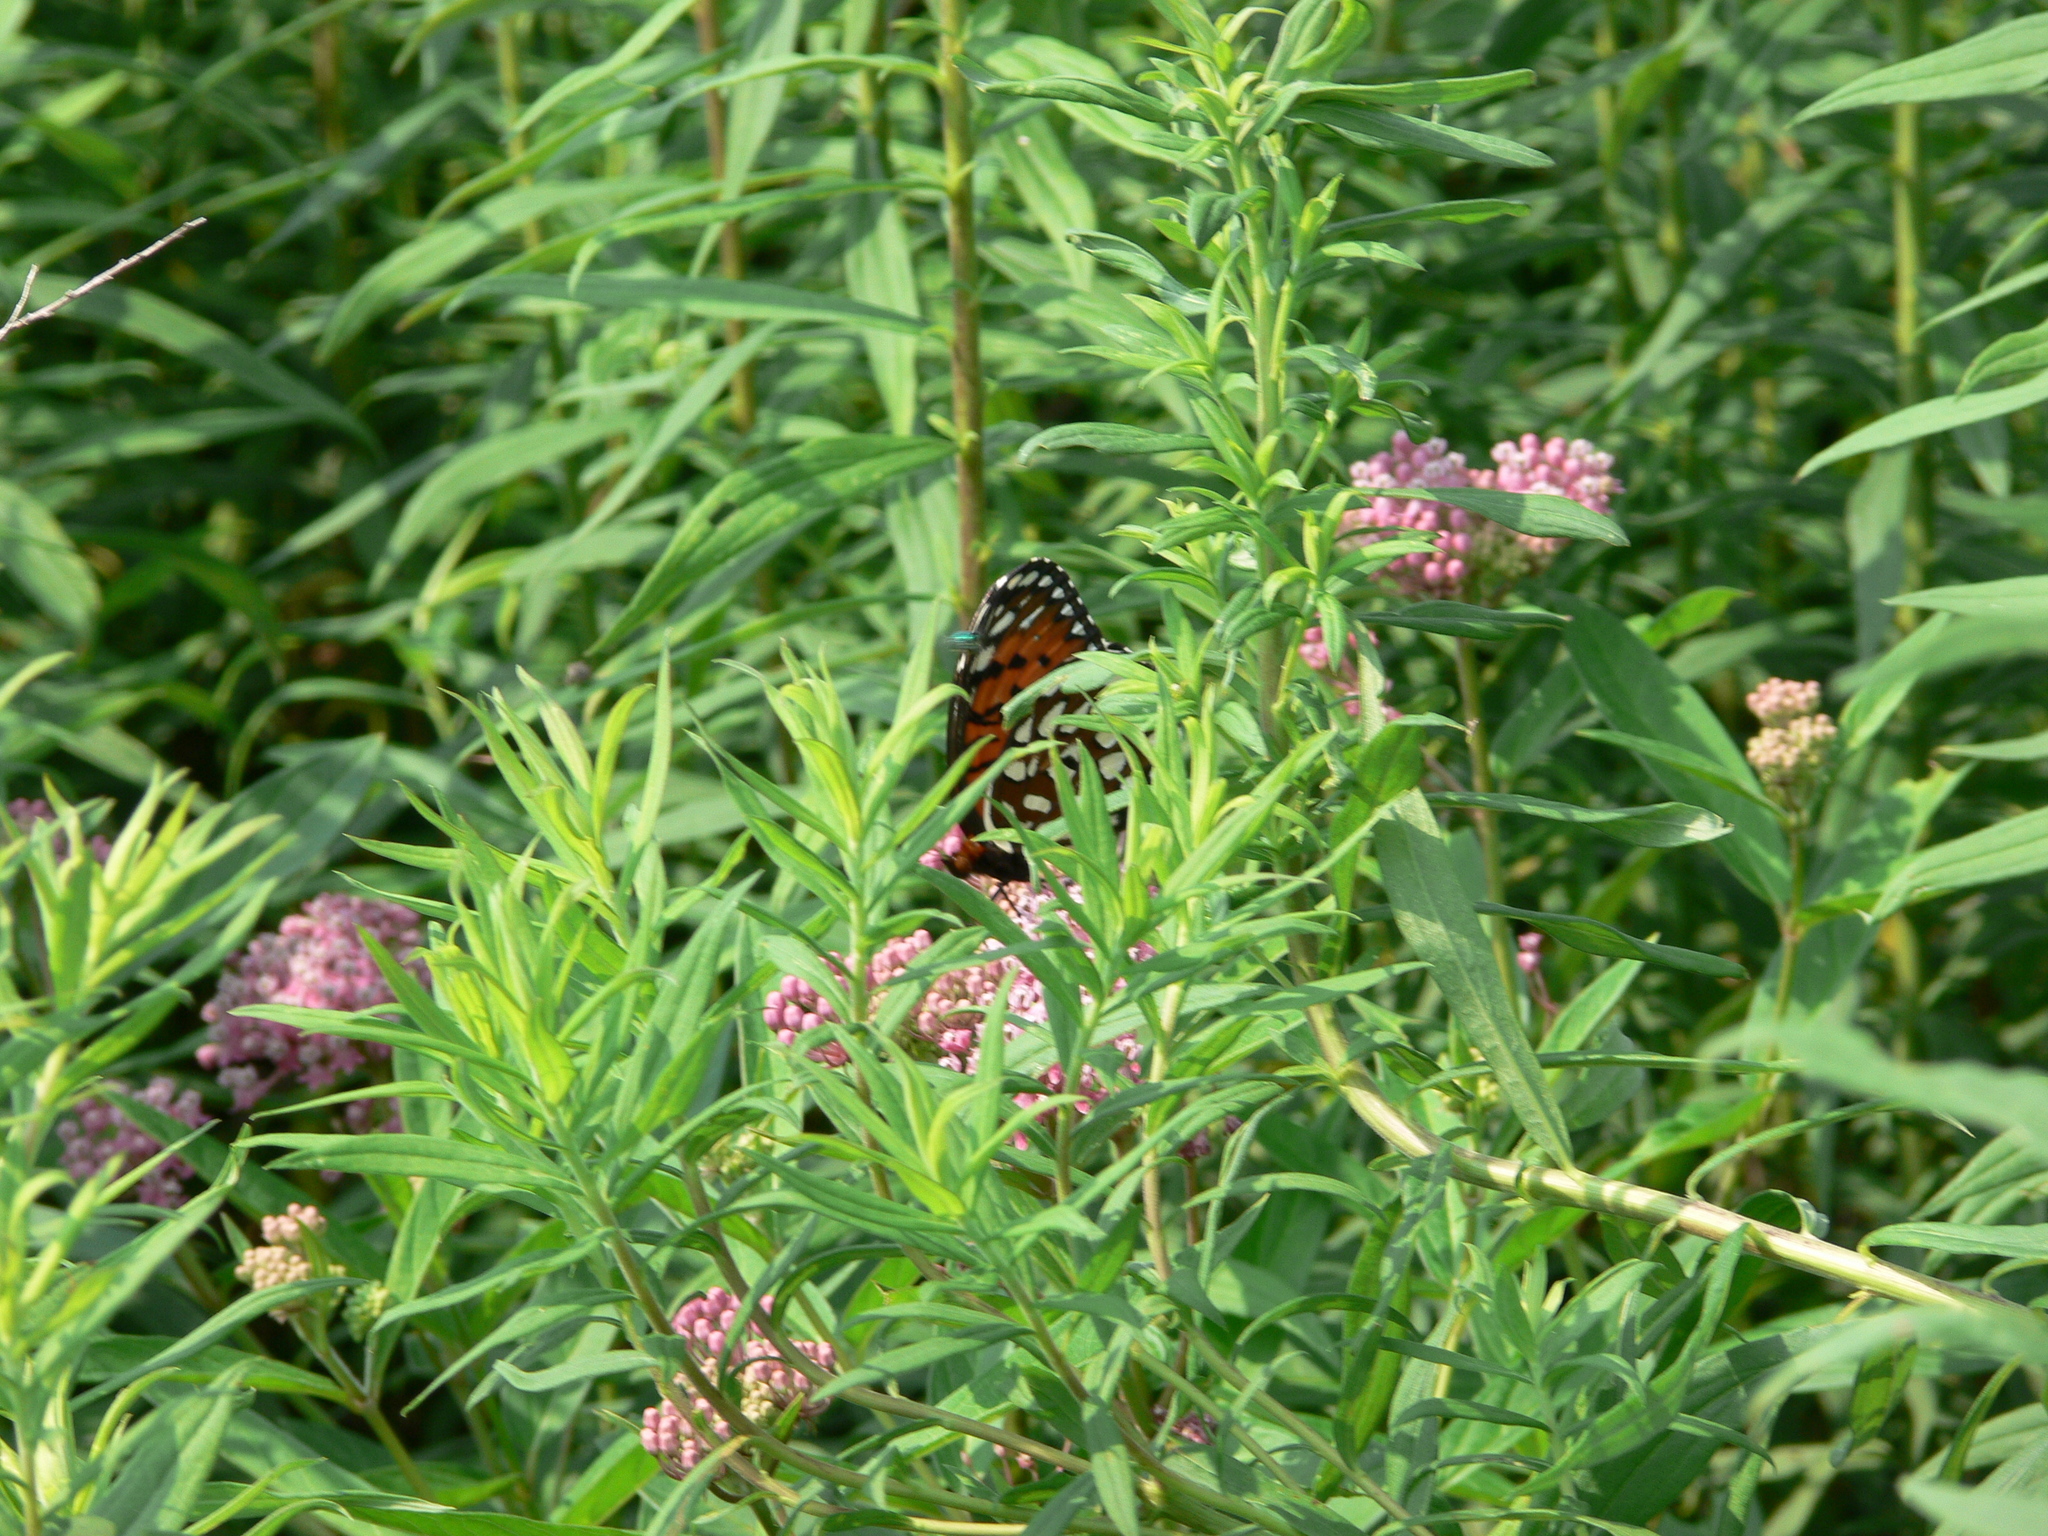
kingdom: Animalia
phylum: Arthropoda
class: Insecta
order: Lepidoptera
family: Nymphalidae
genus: Speyeria
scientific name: Speyeria idalia
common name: Regal fritillary
